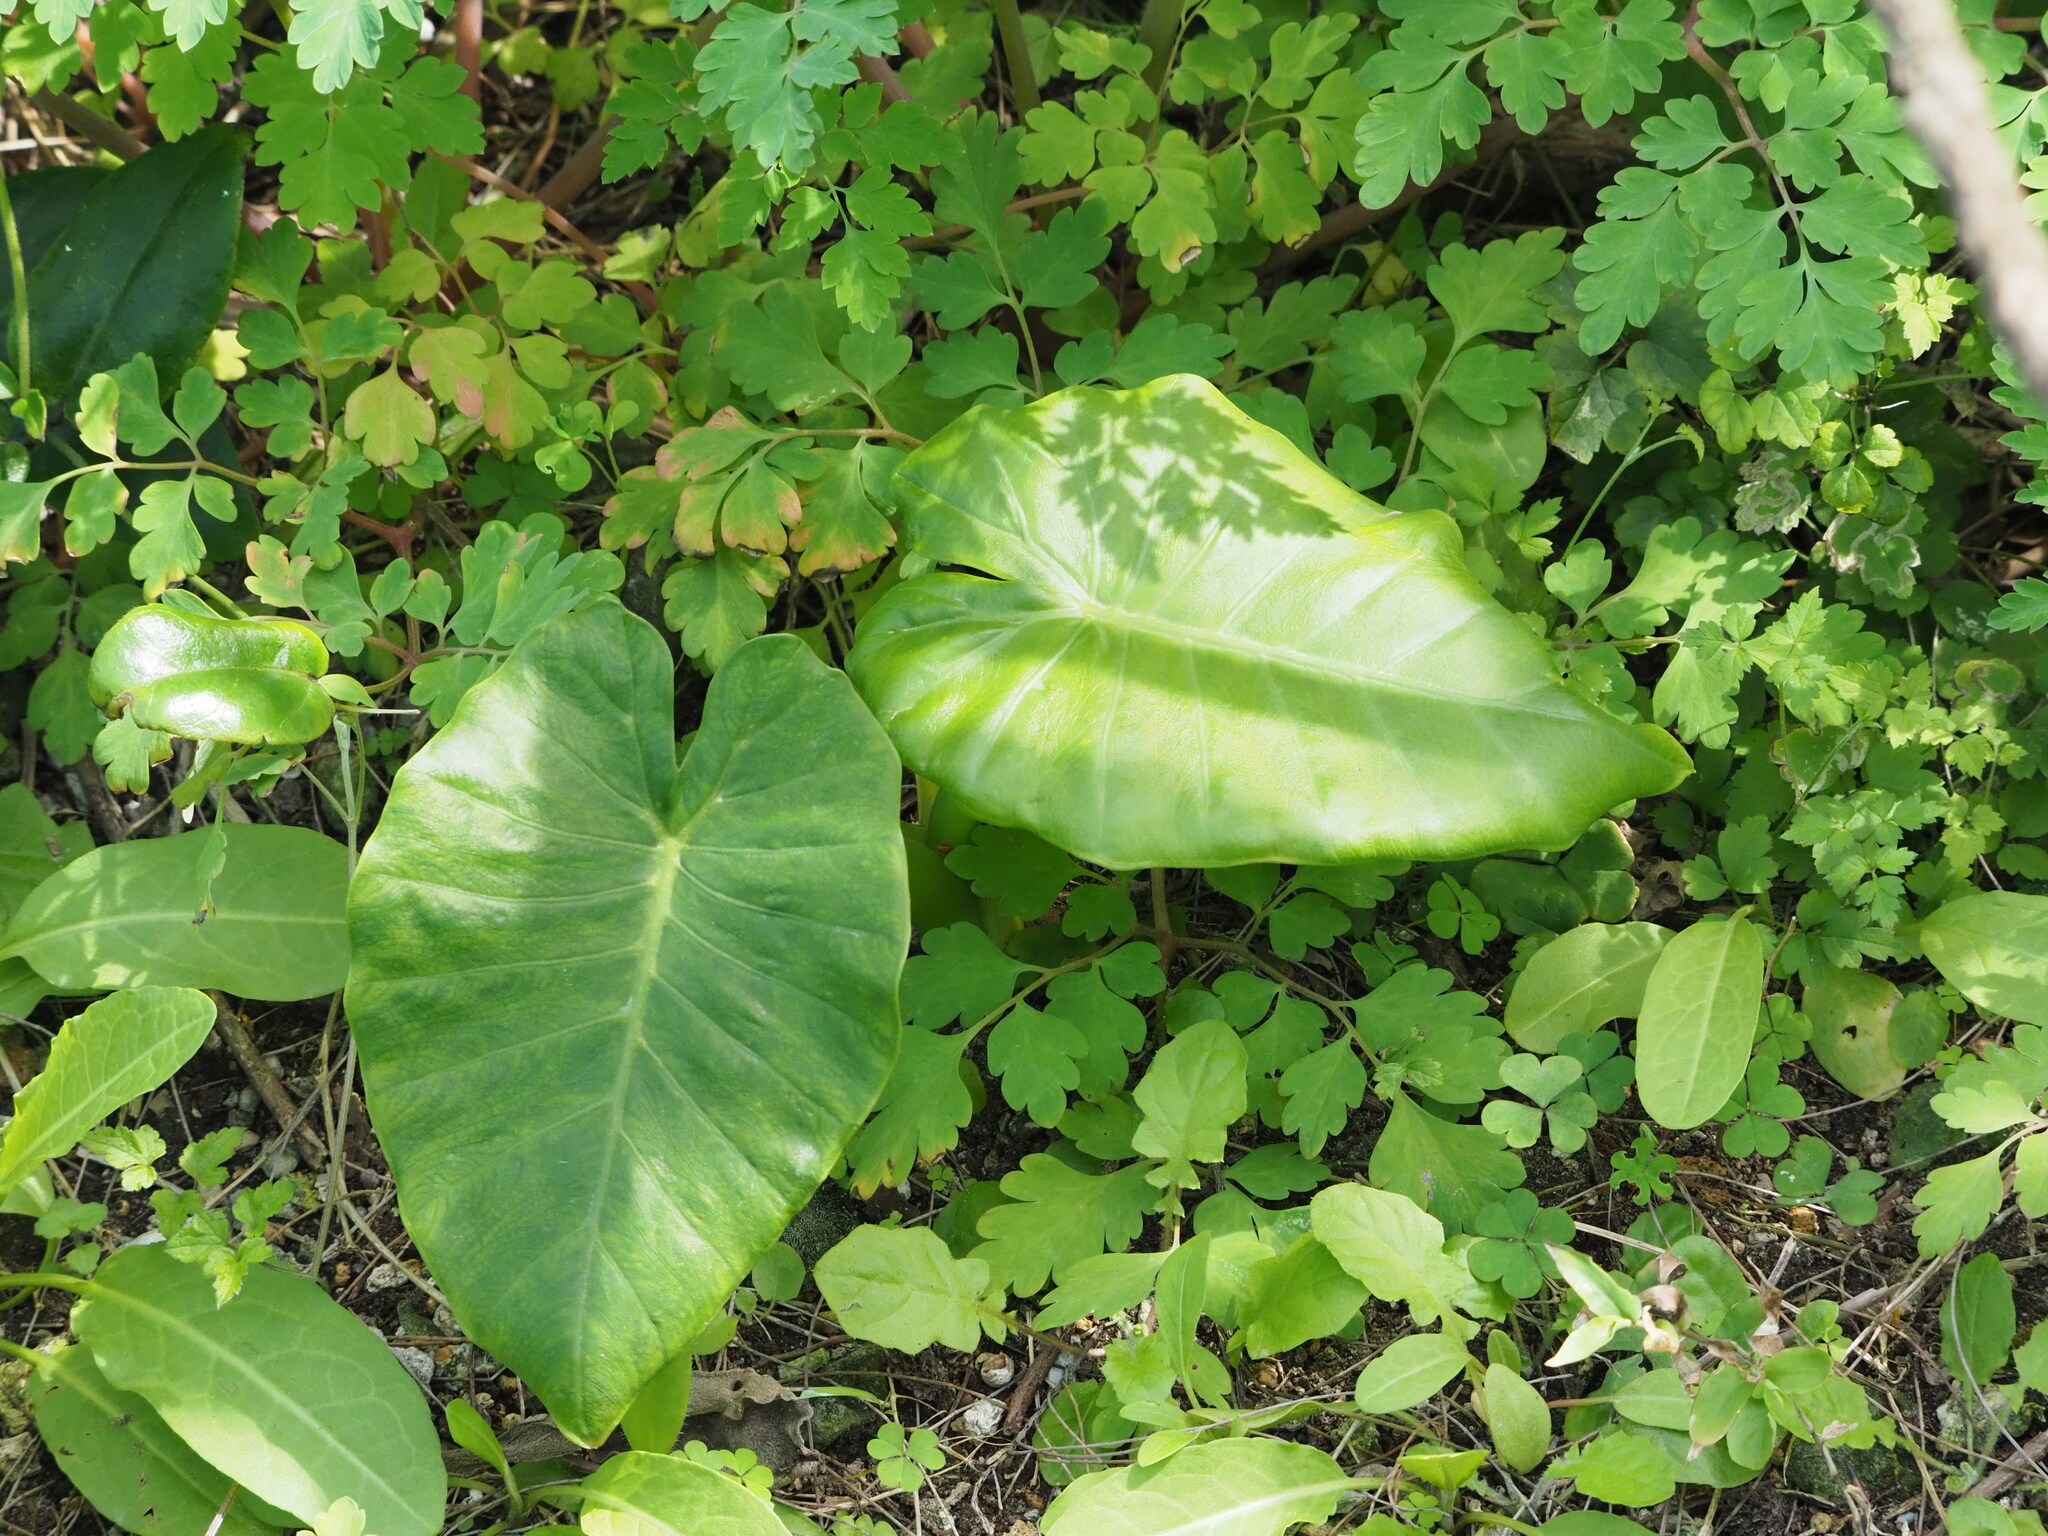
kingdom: Plantae
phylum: Tracheophyta
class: Liliopsida
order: Alismatales
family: Araceae
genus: Alocasia
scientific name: Alocasia odora
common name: Asian taro
